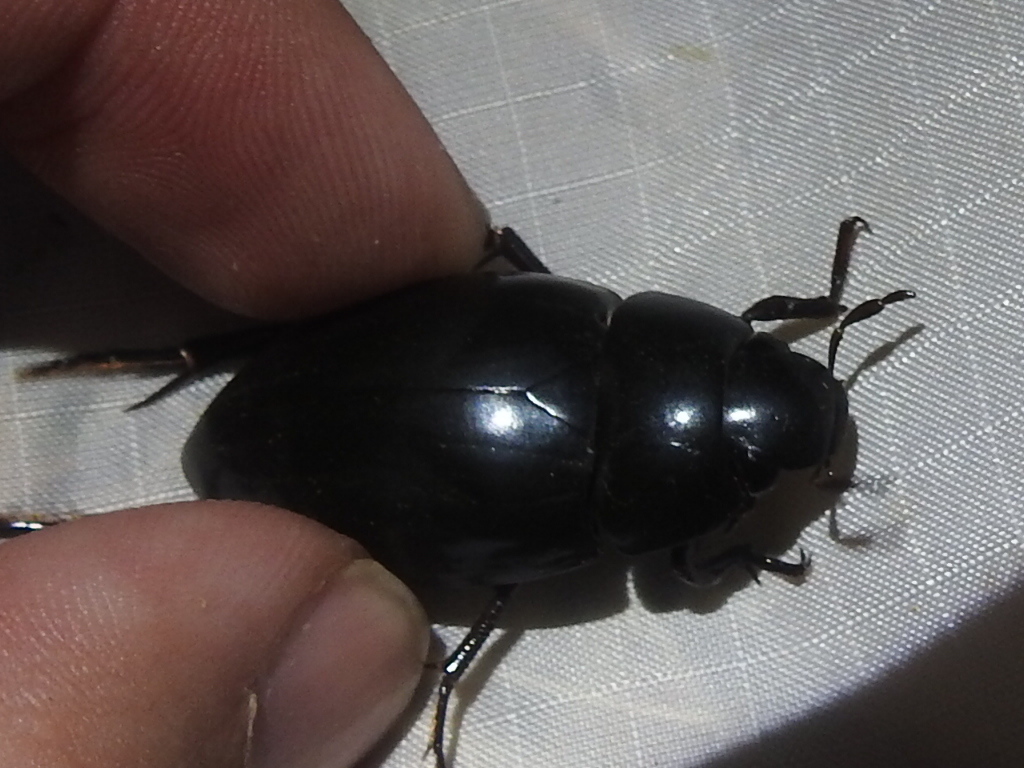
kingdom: Animalia
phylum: Arthropoda
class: Insecta
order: Coleoptera
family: Hydrophilidae
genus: Hydrophilus
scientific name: Hydrophilus ovatus
